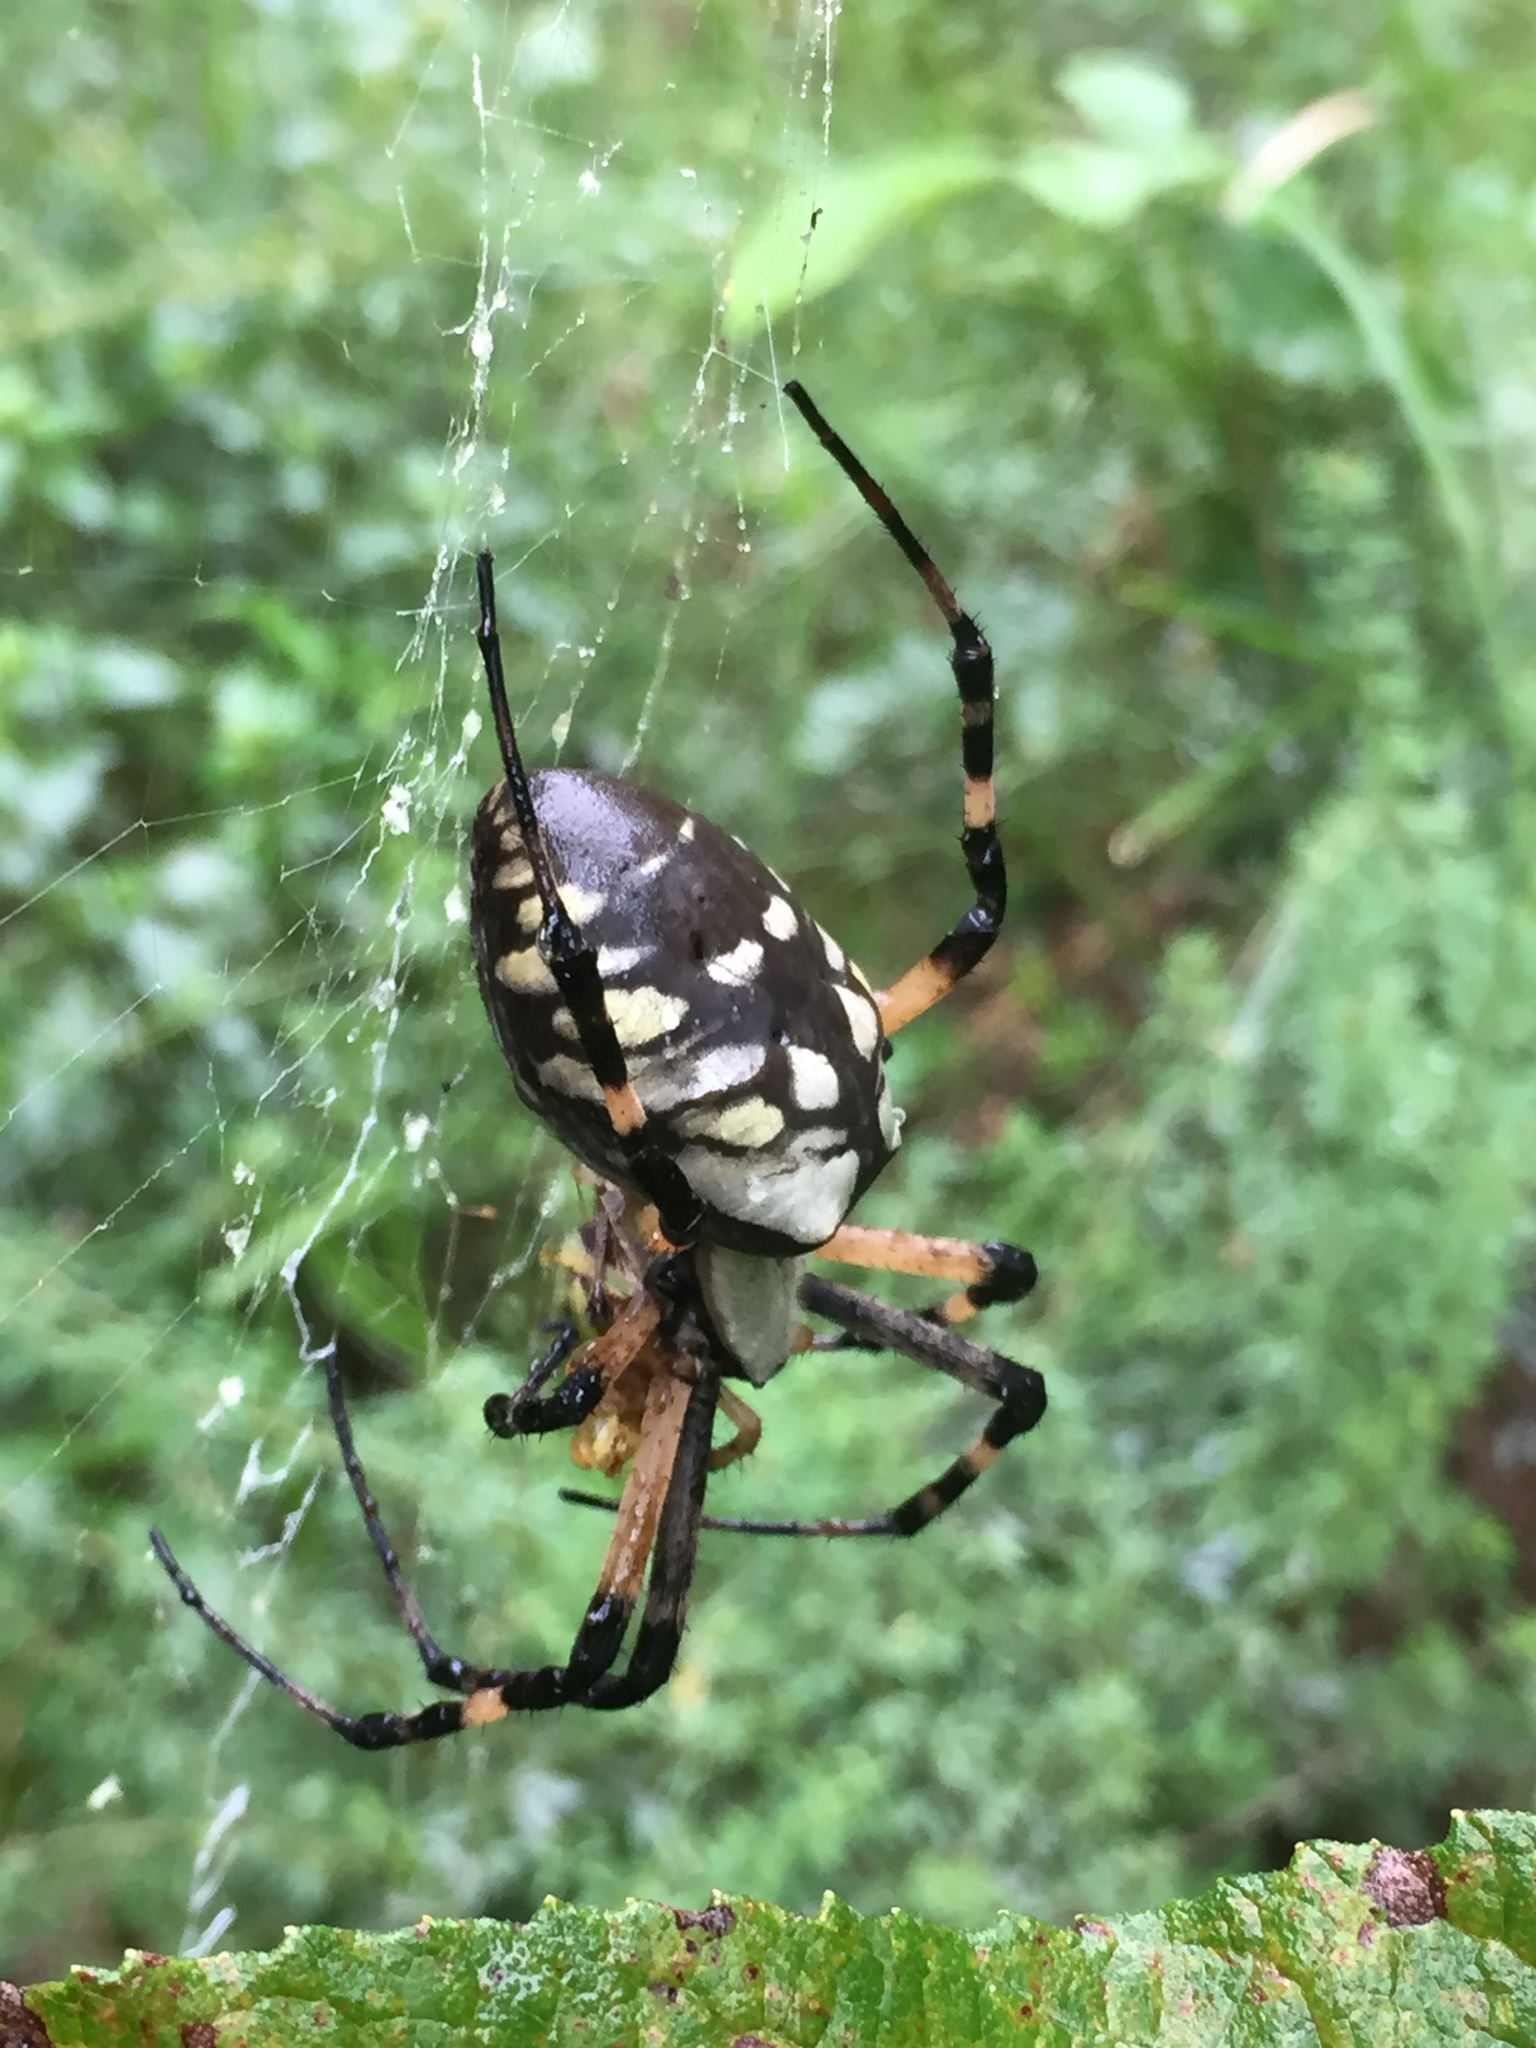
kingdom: Animalia
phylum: Arthropoda
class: Arachnida
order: Araneae
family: Araneidae
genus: Argiope
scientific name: Argiope aurantia
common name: Orb weavers
